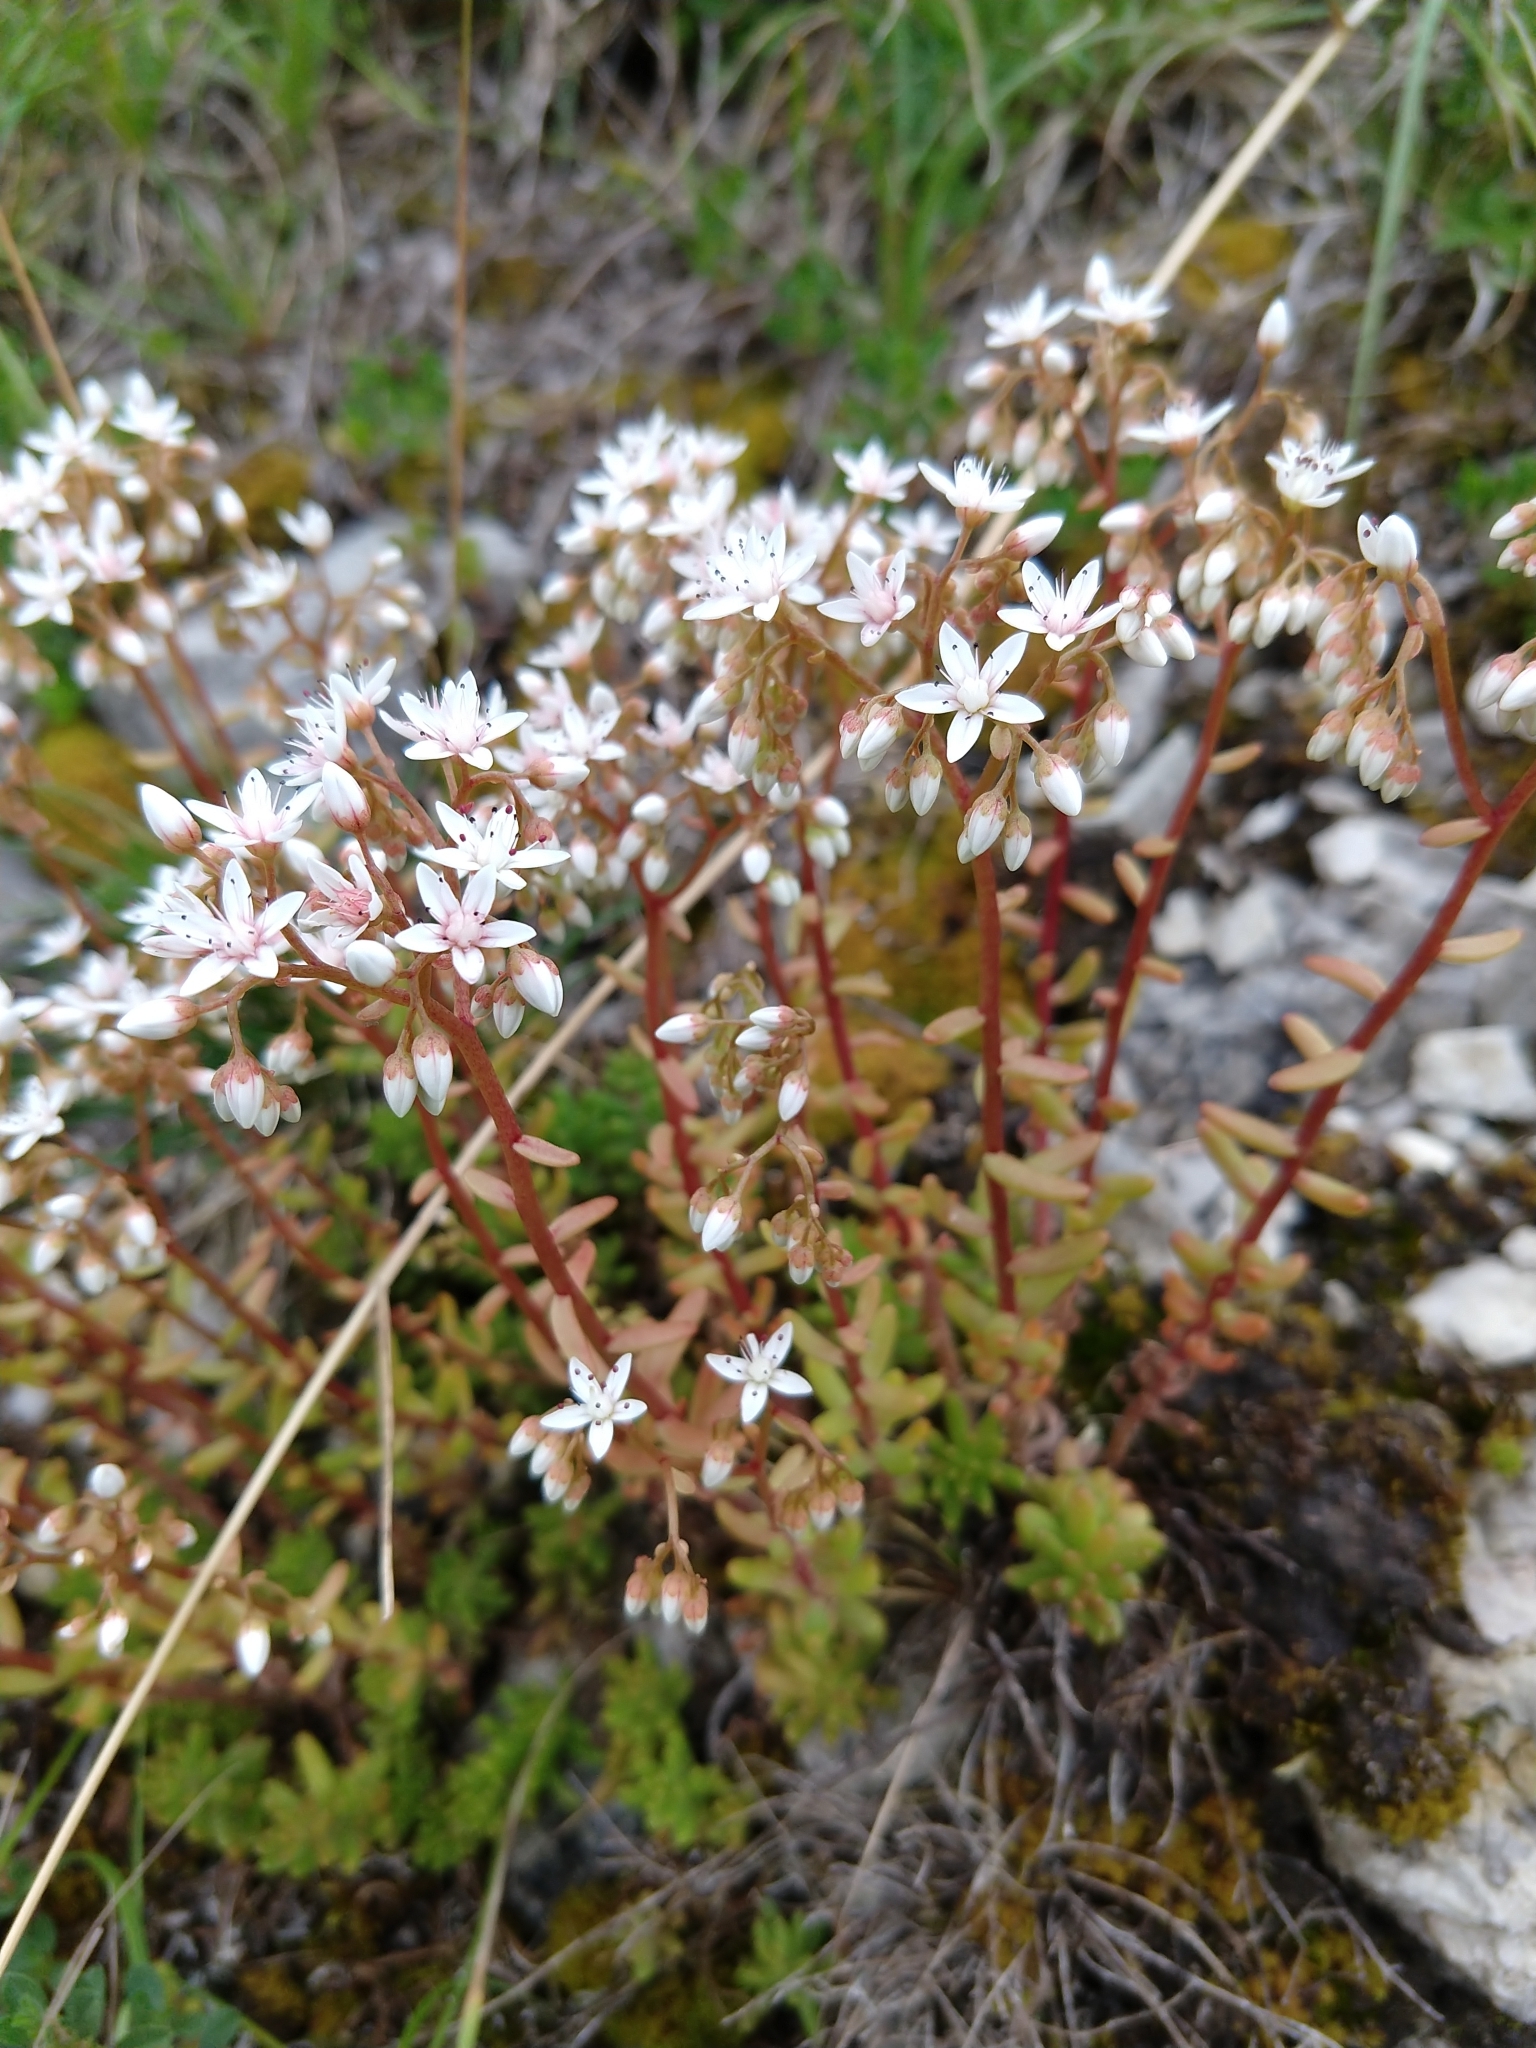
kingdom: Plantae
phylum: Tracheophyta
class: Magnoliopsida
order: Saxifragales
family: Crassulaceae
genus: Sedum
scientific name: Sedum album
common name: White stonecrop
